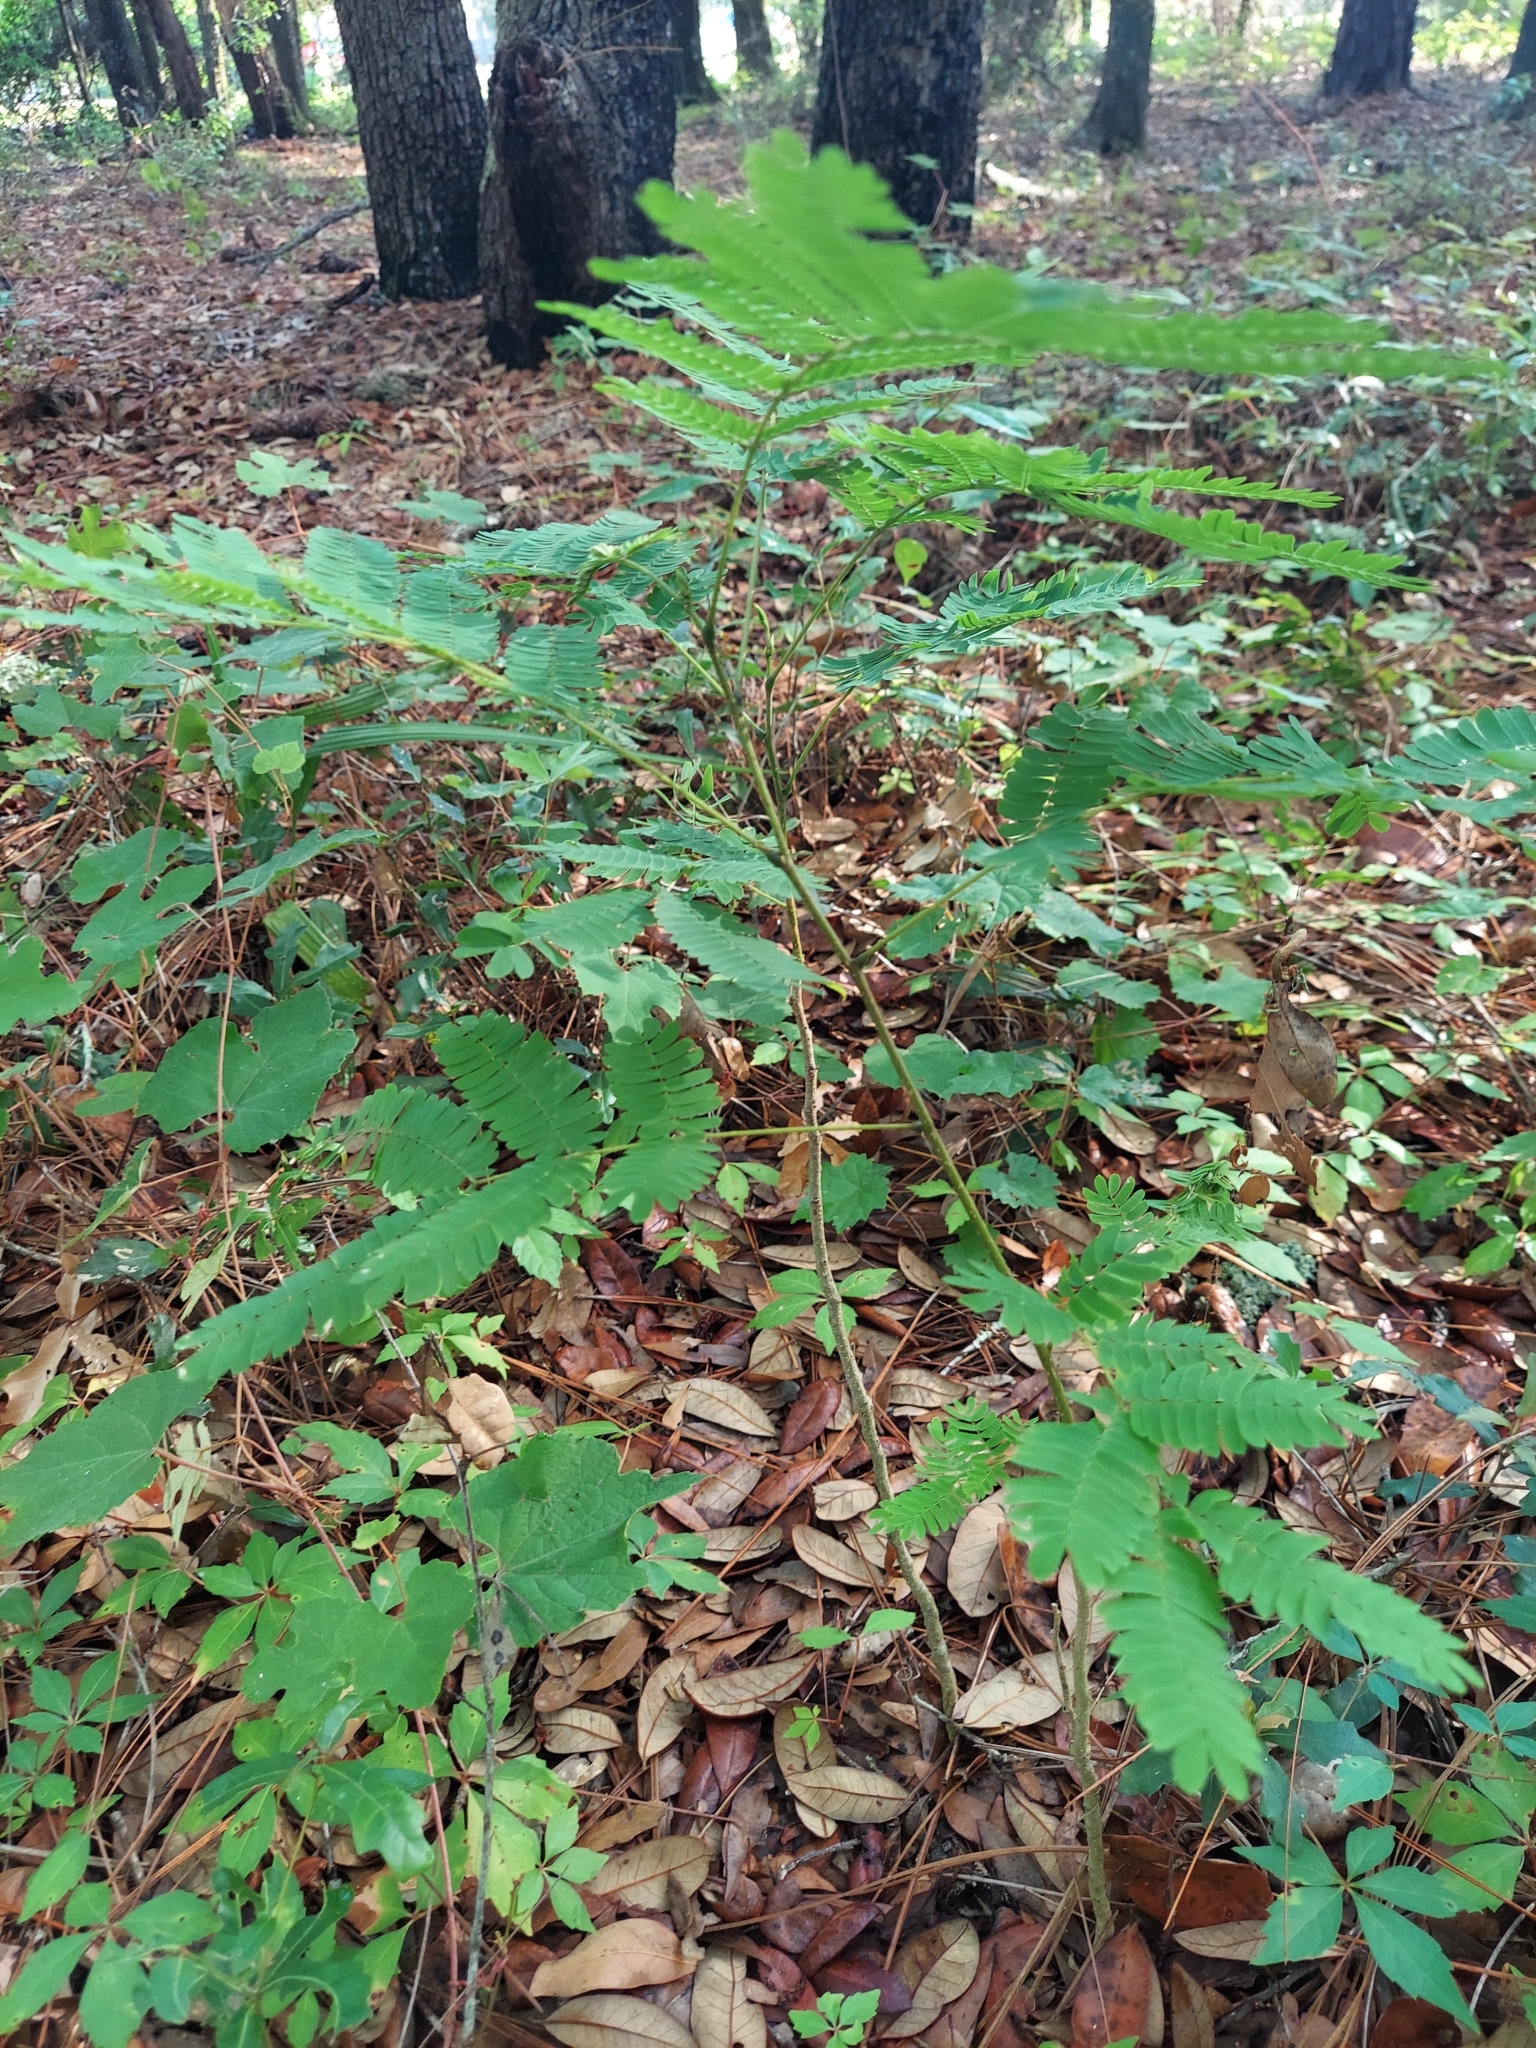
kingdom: Plantae
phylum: Tracheophyta
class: Magnoliopsida
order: Fabales
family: Fabaceae
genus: Albizia
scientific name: Albizia julibrissin
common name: Silktree
